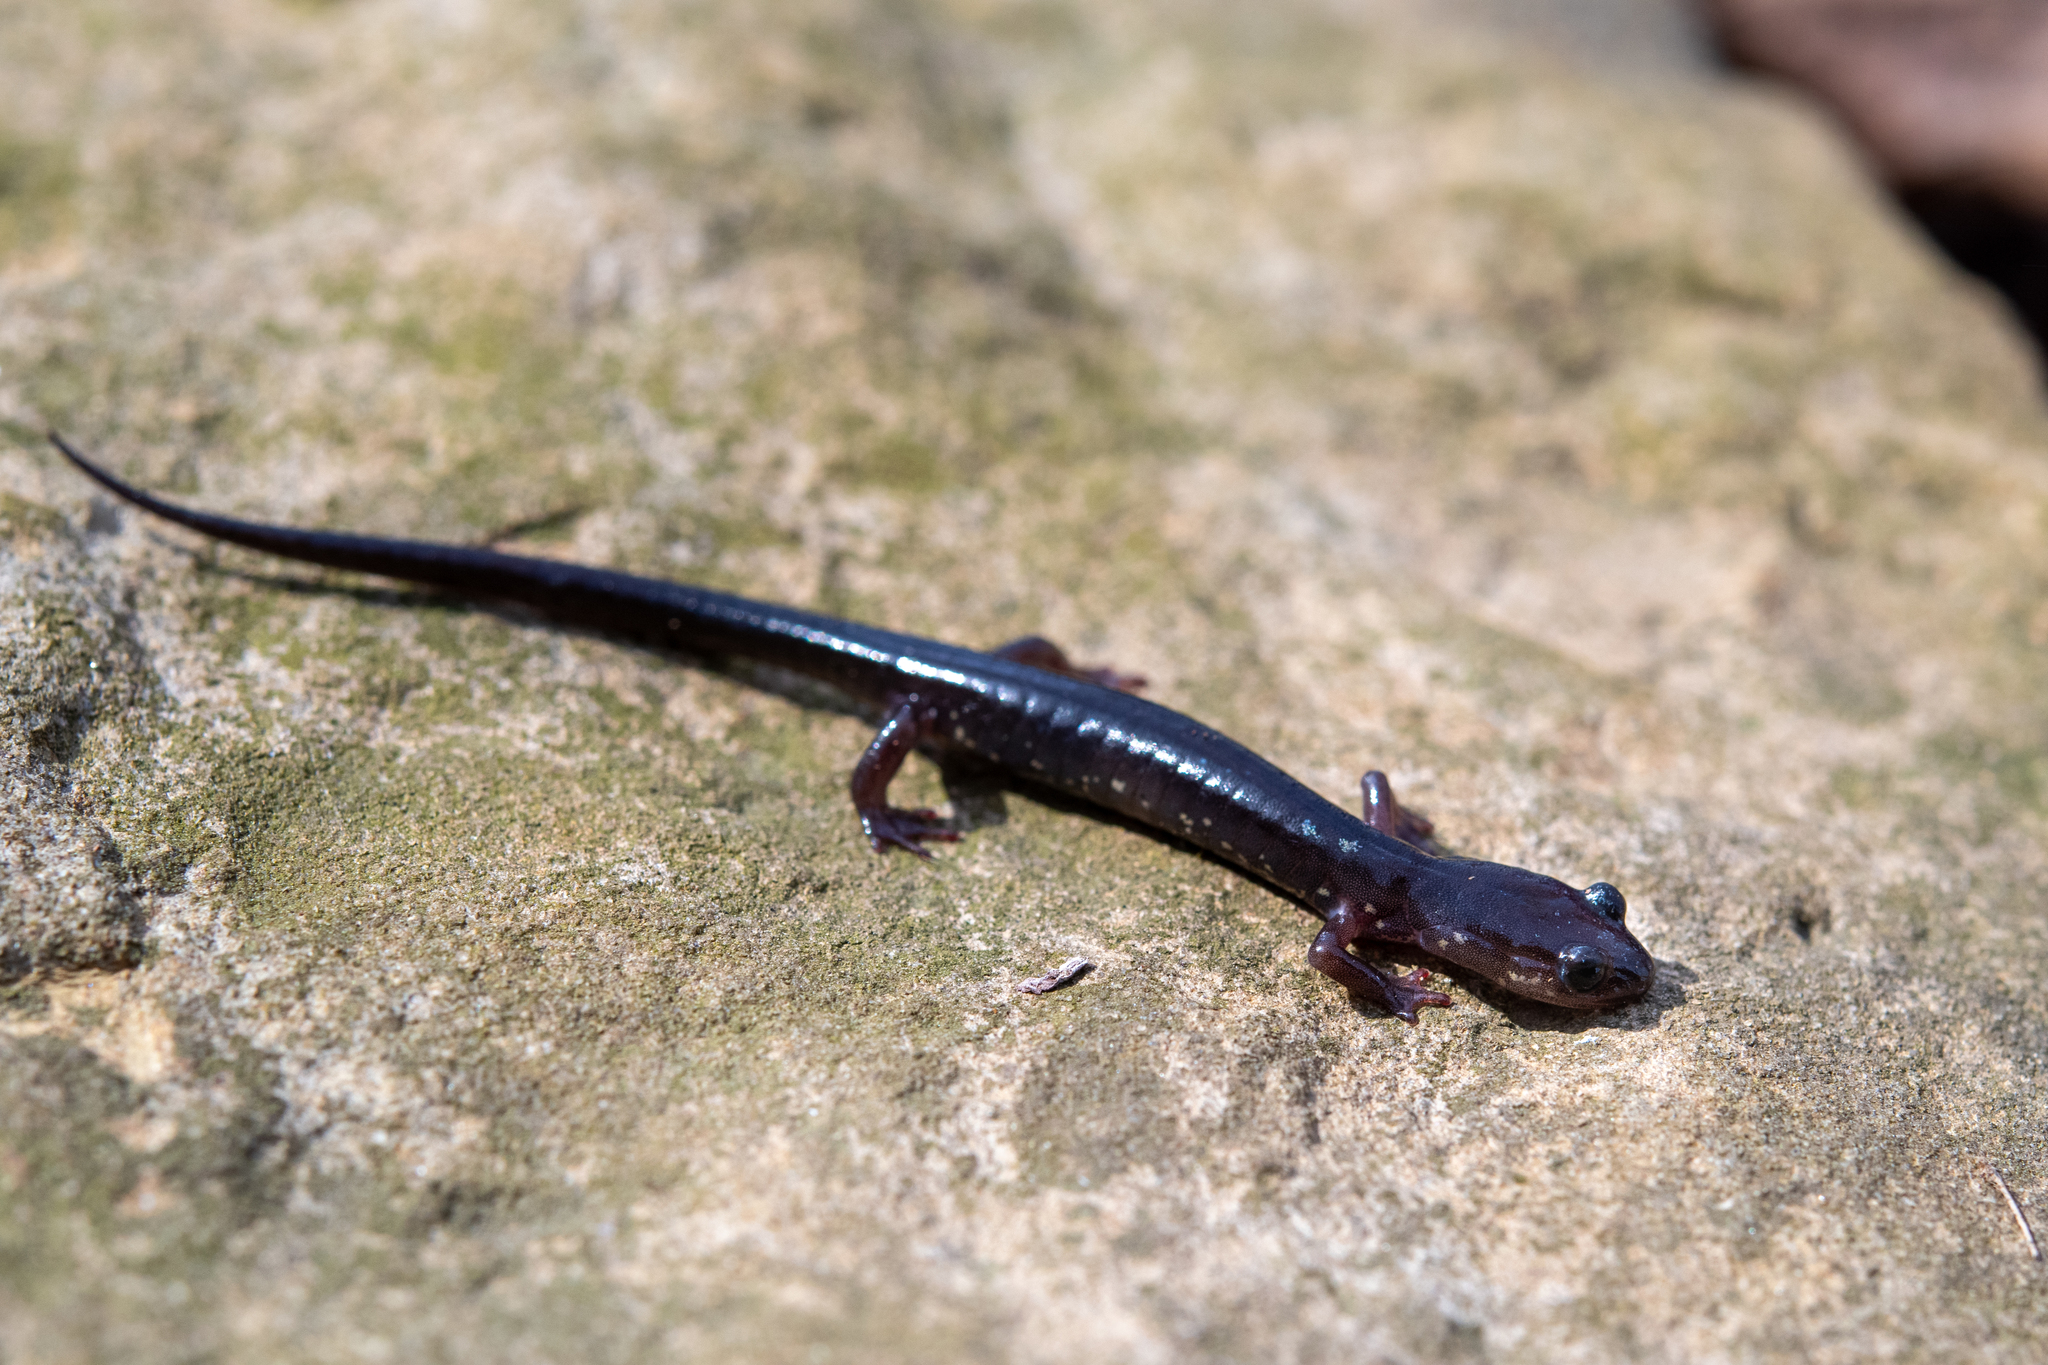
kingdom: Animalia
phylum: Chordata
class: Amphibia
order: Caudata
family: Plethodontidae
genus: Plethodon
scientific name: Plethodon wehrlei
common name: Wehrle's salamander
